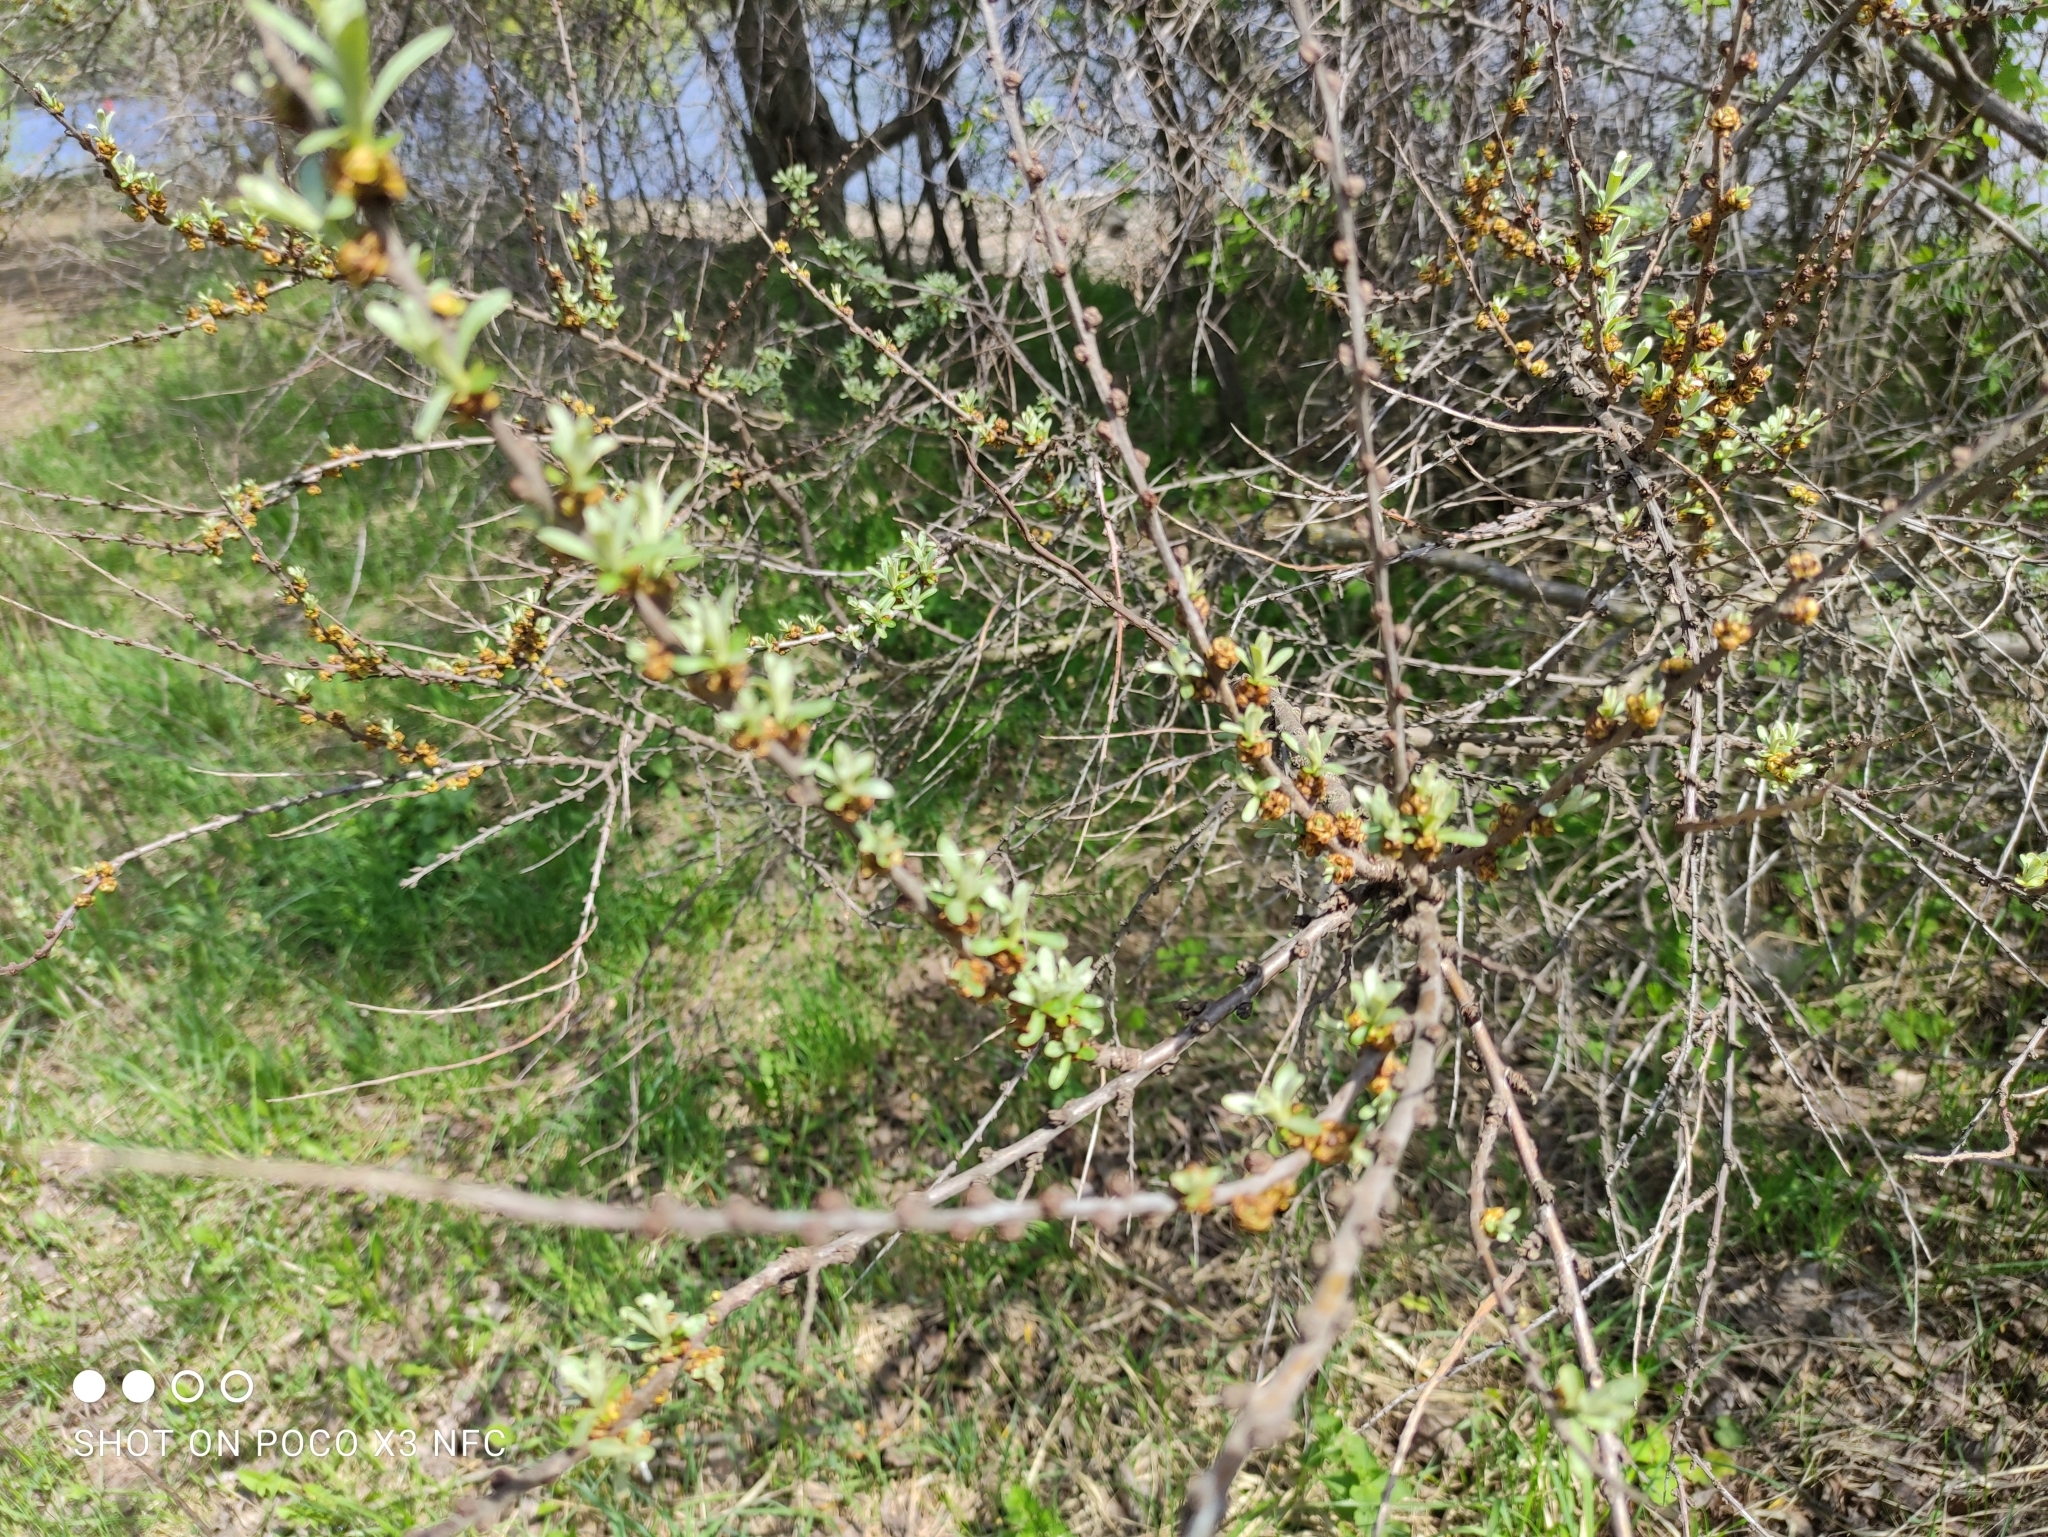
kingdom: Plantae
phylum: Tracheophyta
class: Magnoliopsida
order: Rosales
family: Elaeagnaceae
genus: Hippophae
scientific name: Hippophae rhamnoides
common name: Sea-buckthorn
